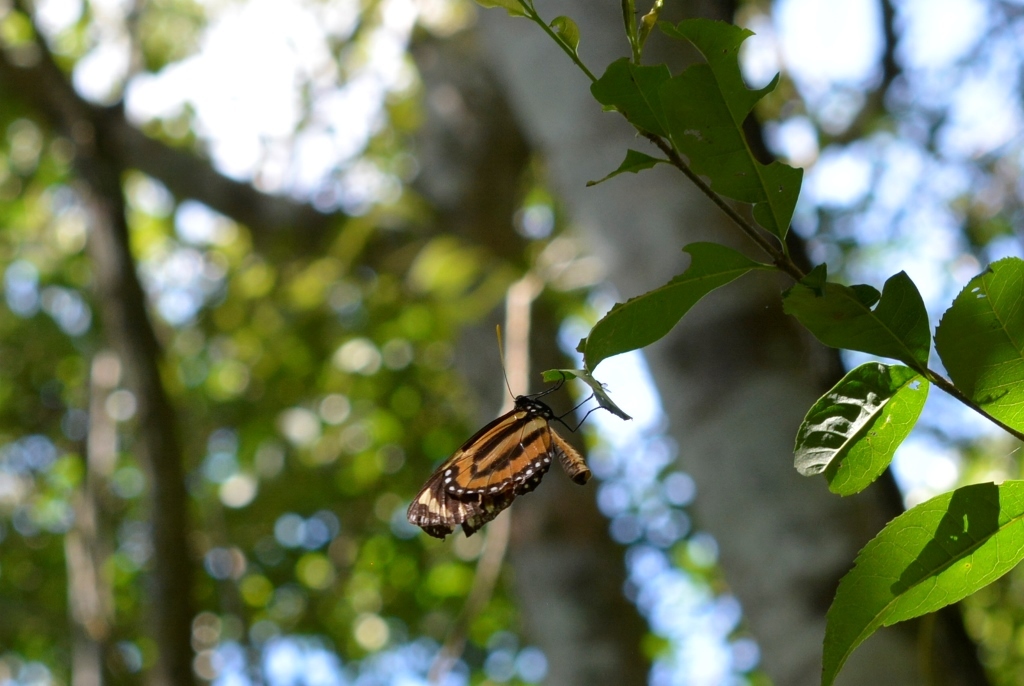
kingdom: Animalia
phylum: Arthropoda
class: Insecta
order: Lepidoptera
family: Nymphalidae
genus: Lycorea
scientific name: Lycorea cleobaea
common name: Tiger mimic-queen
